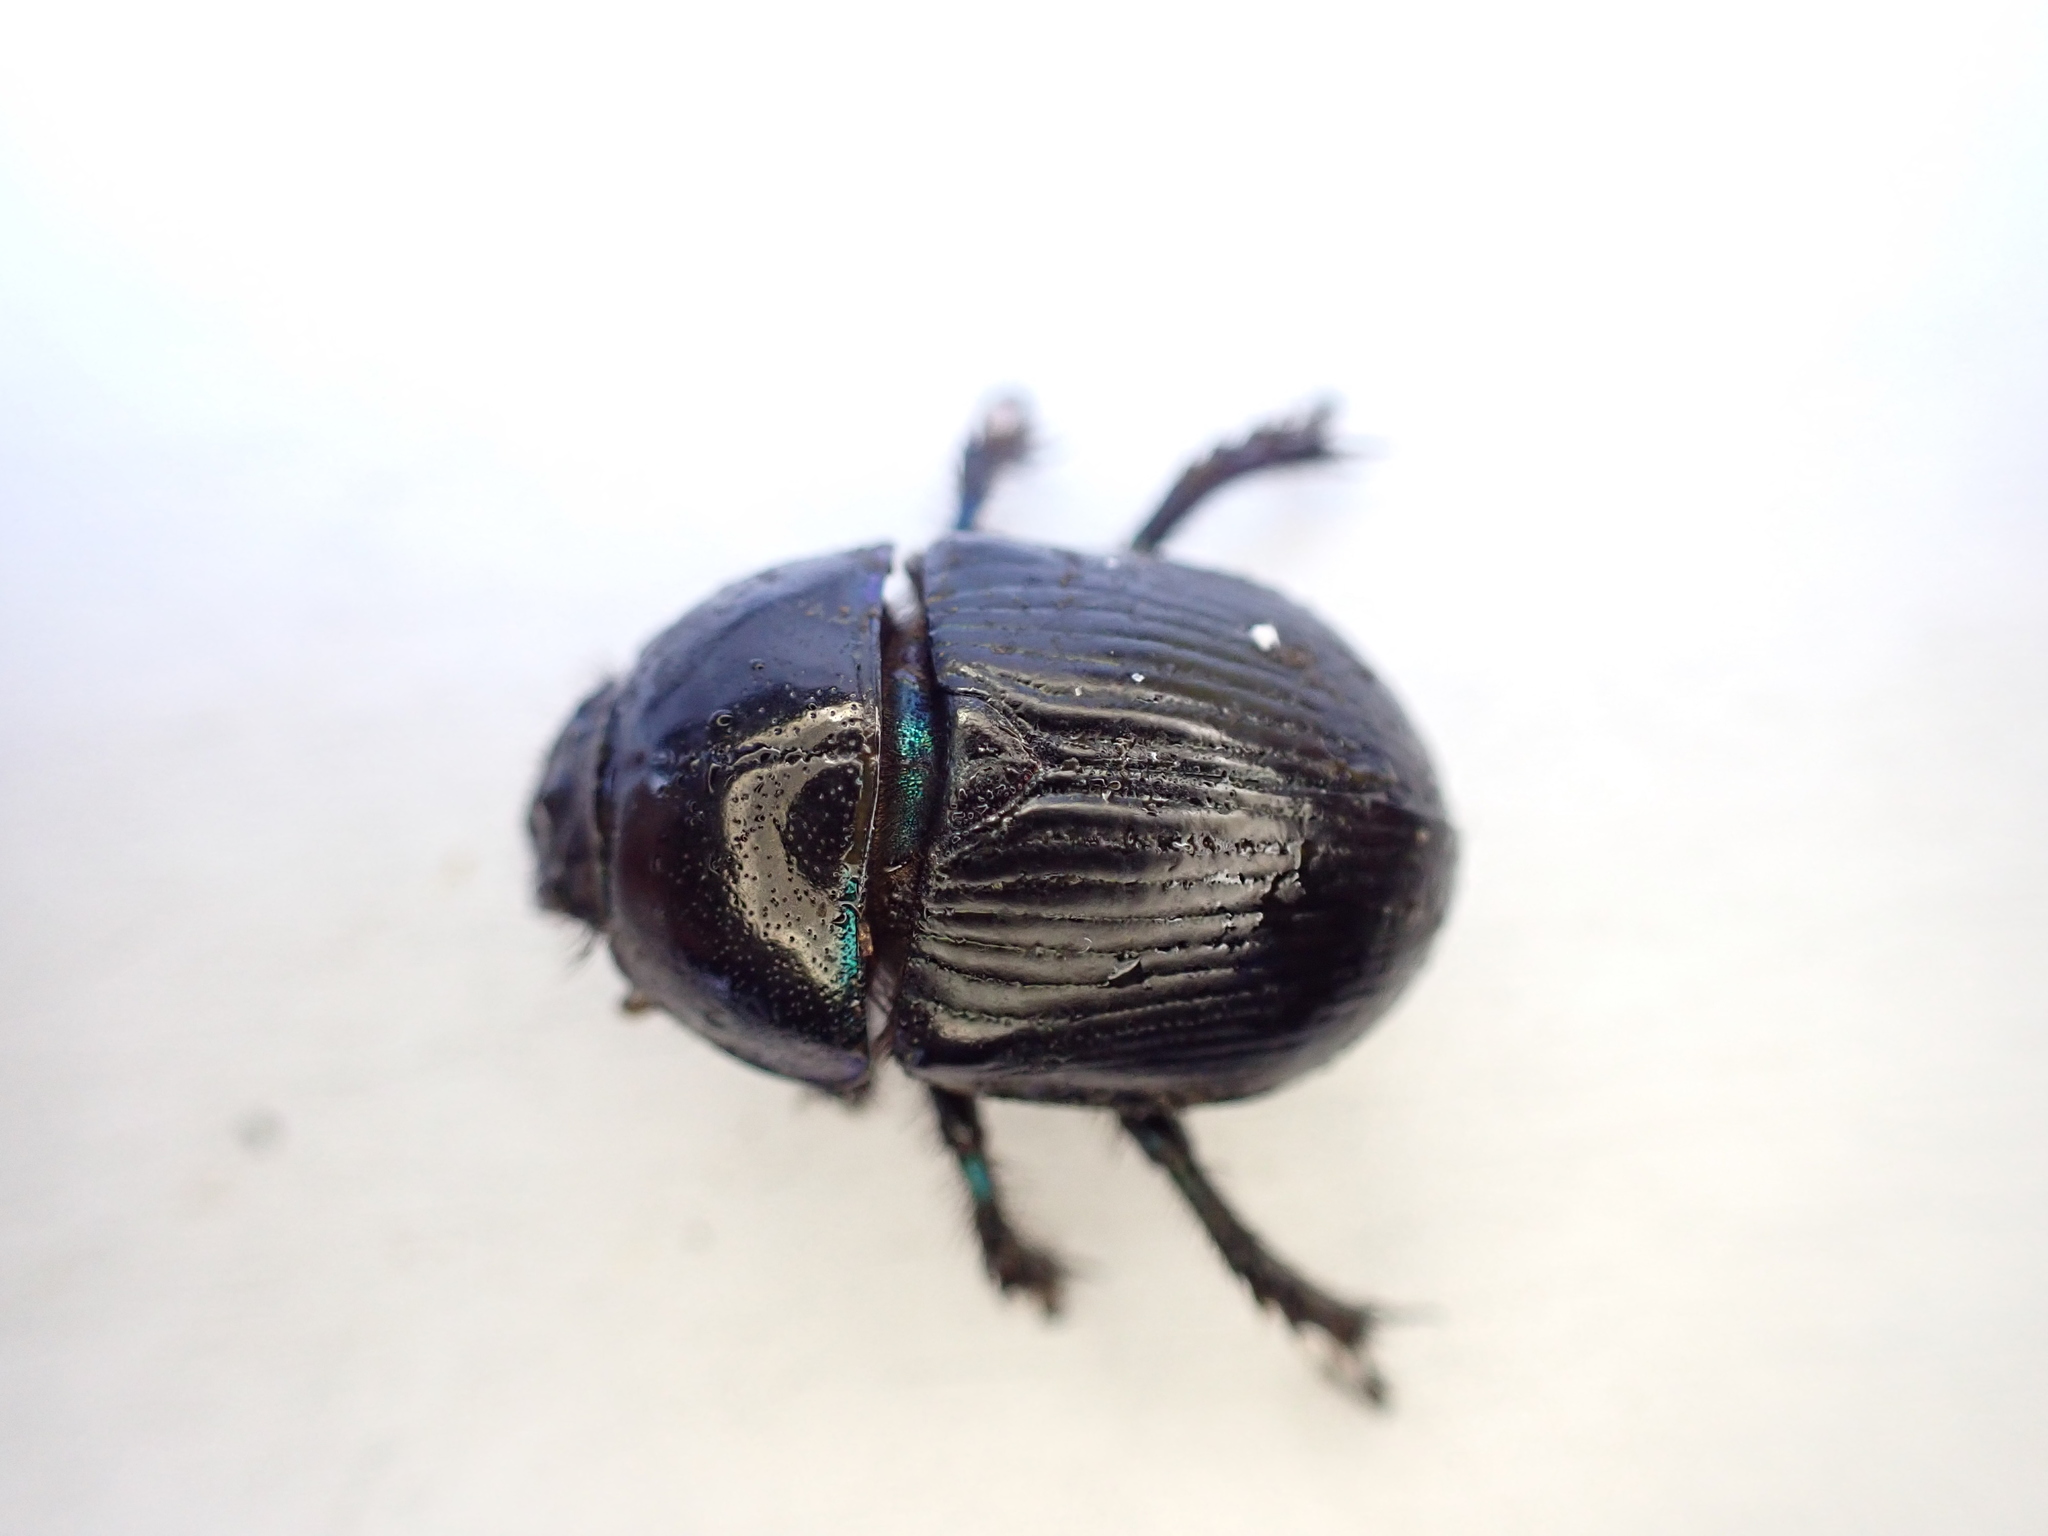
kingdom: Animalia
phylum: Arthropoda
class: Insecta
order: Coleoptera
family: Geotrupidae
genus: Geotrupes
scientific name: Geotrupes spiniger
